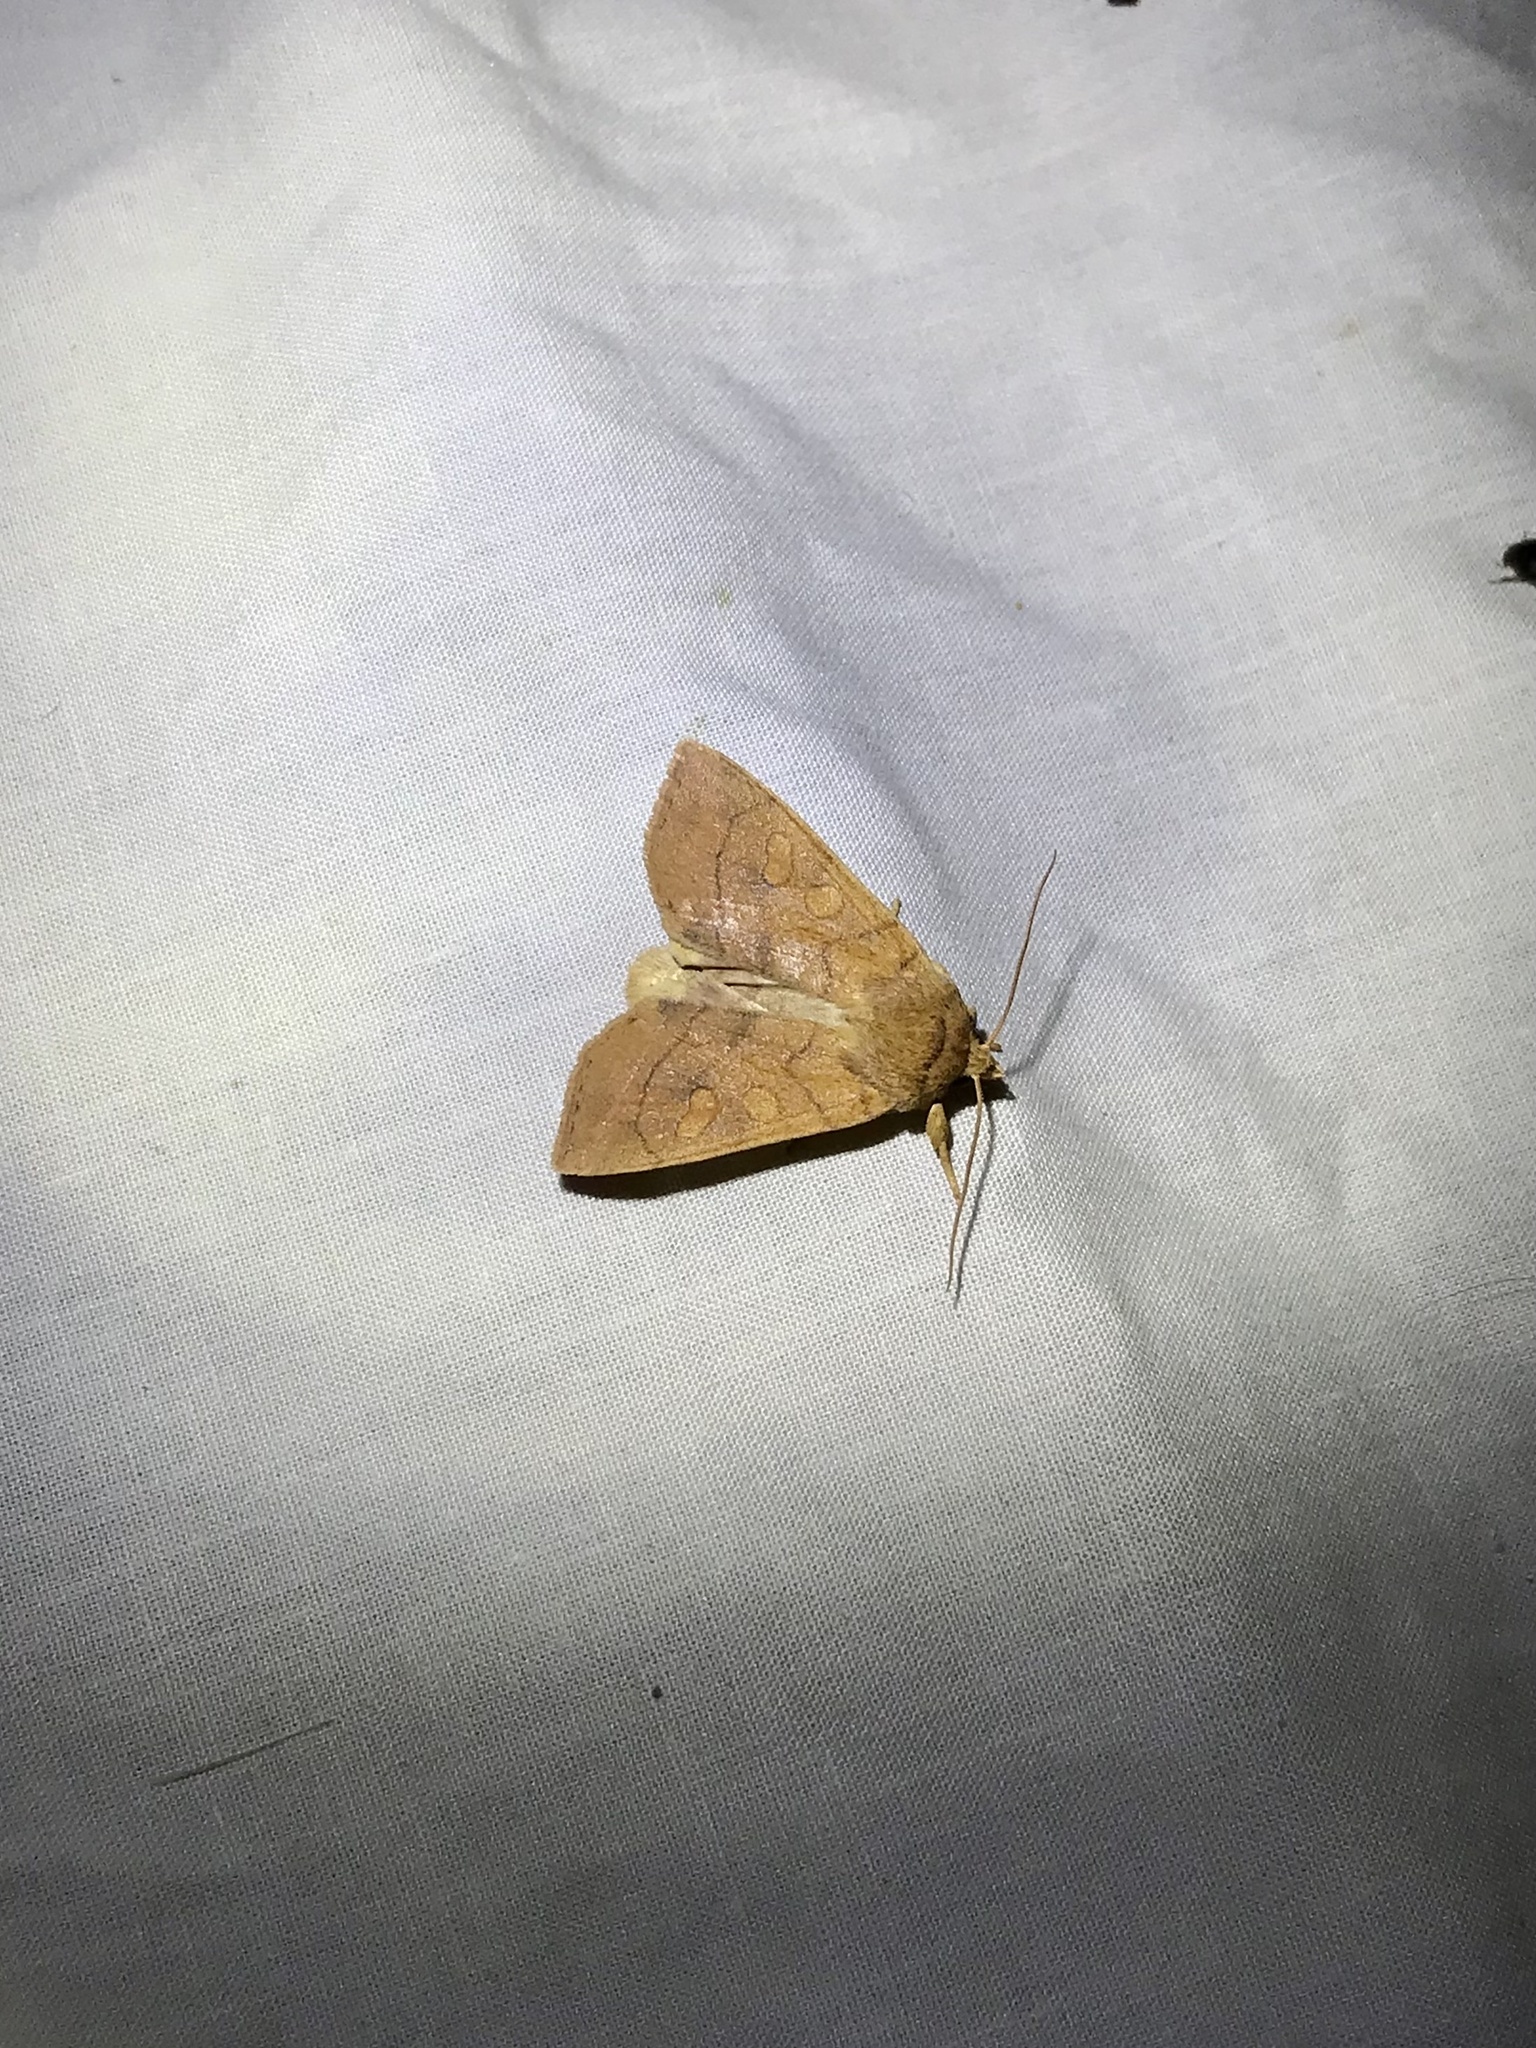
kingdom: Animalia
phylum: Arthropoda
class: Insecta
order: Lepidoptera
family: Noctuidae
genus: Enargia
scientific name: Enargia decolor
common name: Aspen twoleaf tier moth
